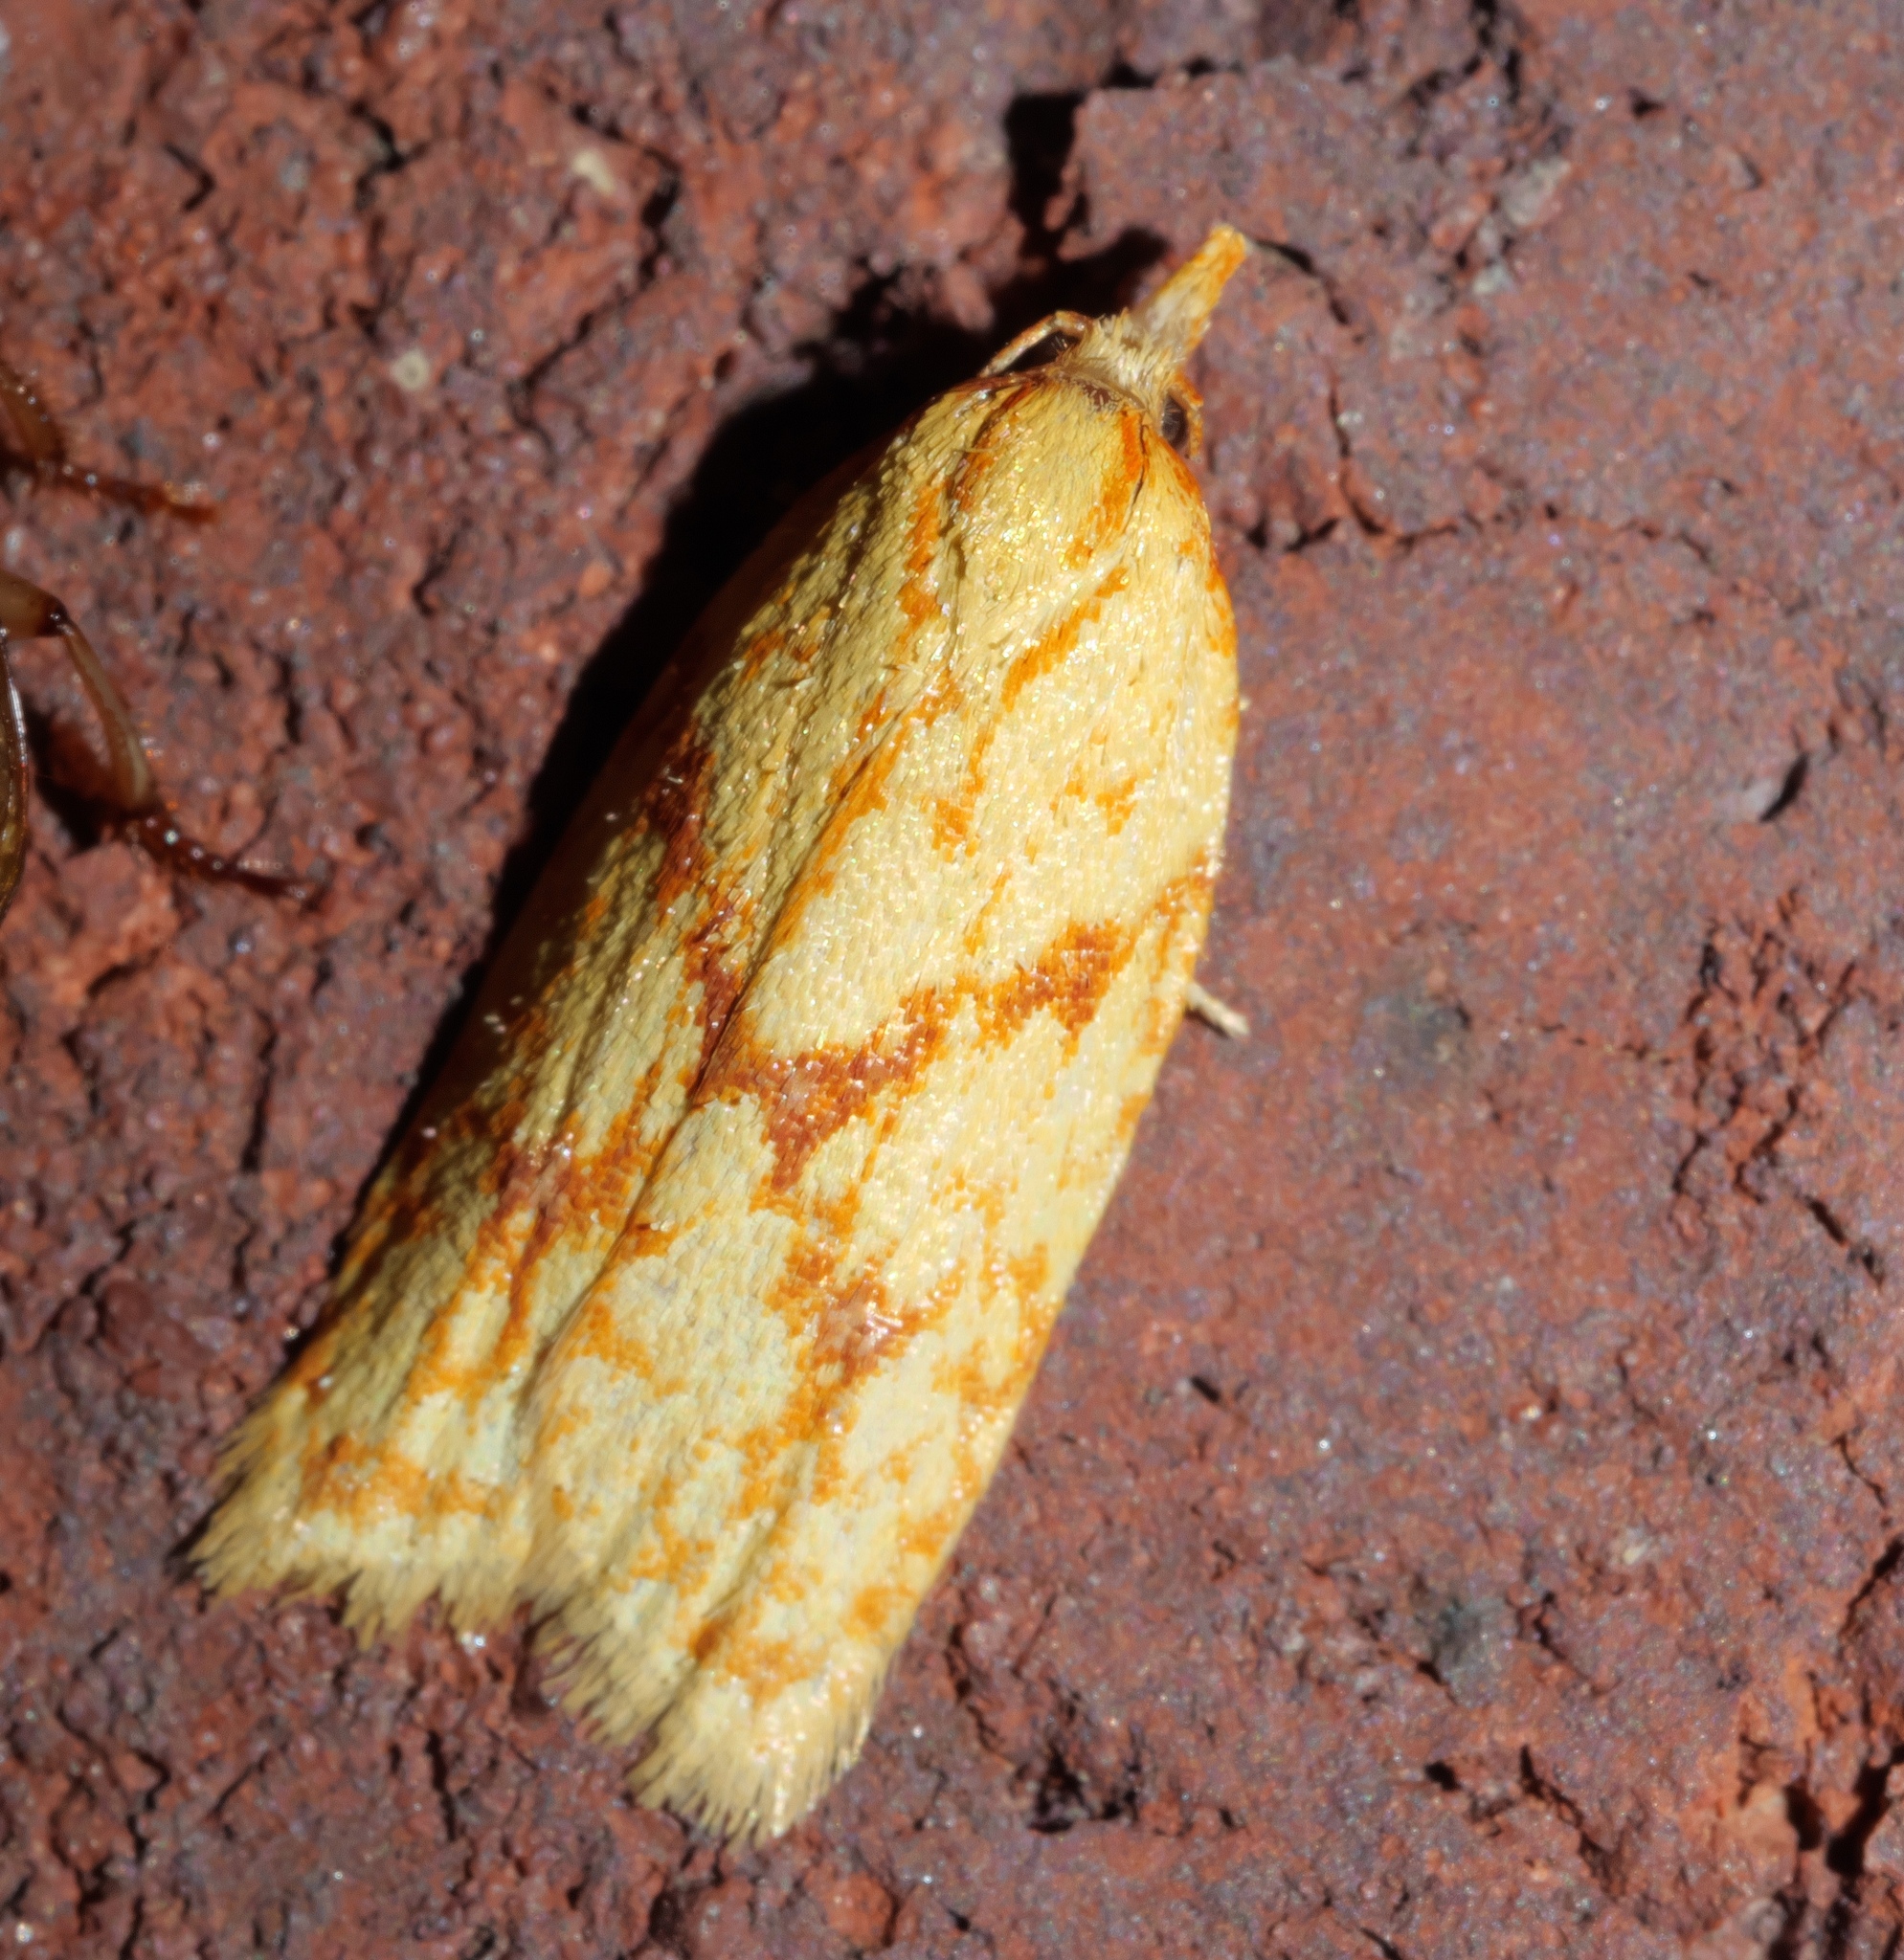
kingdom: Animalia
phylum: Arthropoda
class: Insecta
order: Lepidoptera
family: Tortricidae
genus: Sparganothis
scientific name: Sparganothis sulfureana
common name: Sparganothis fruitworm moth
